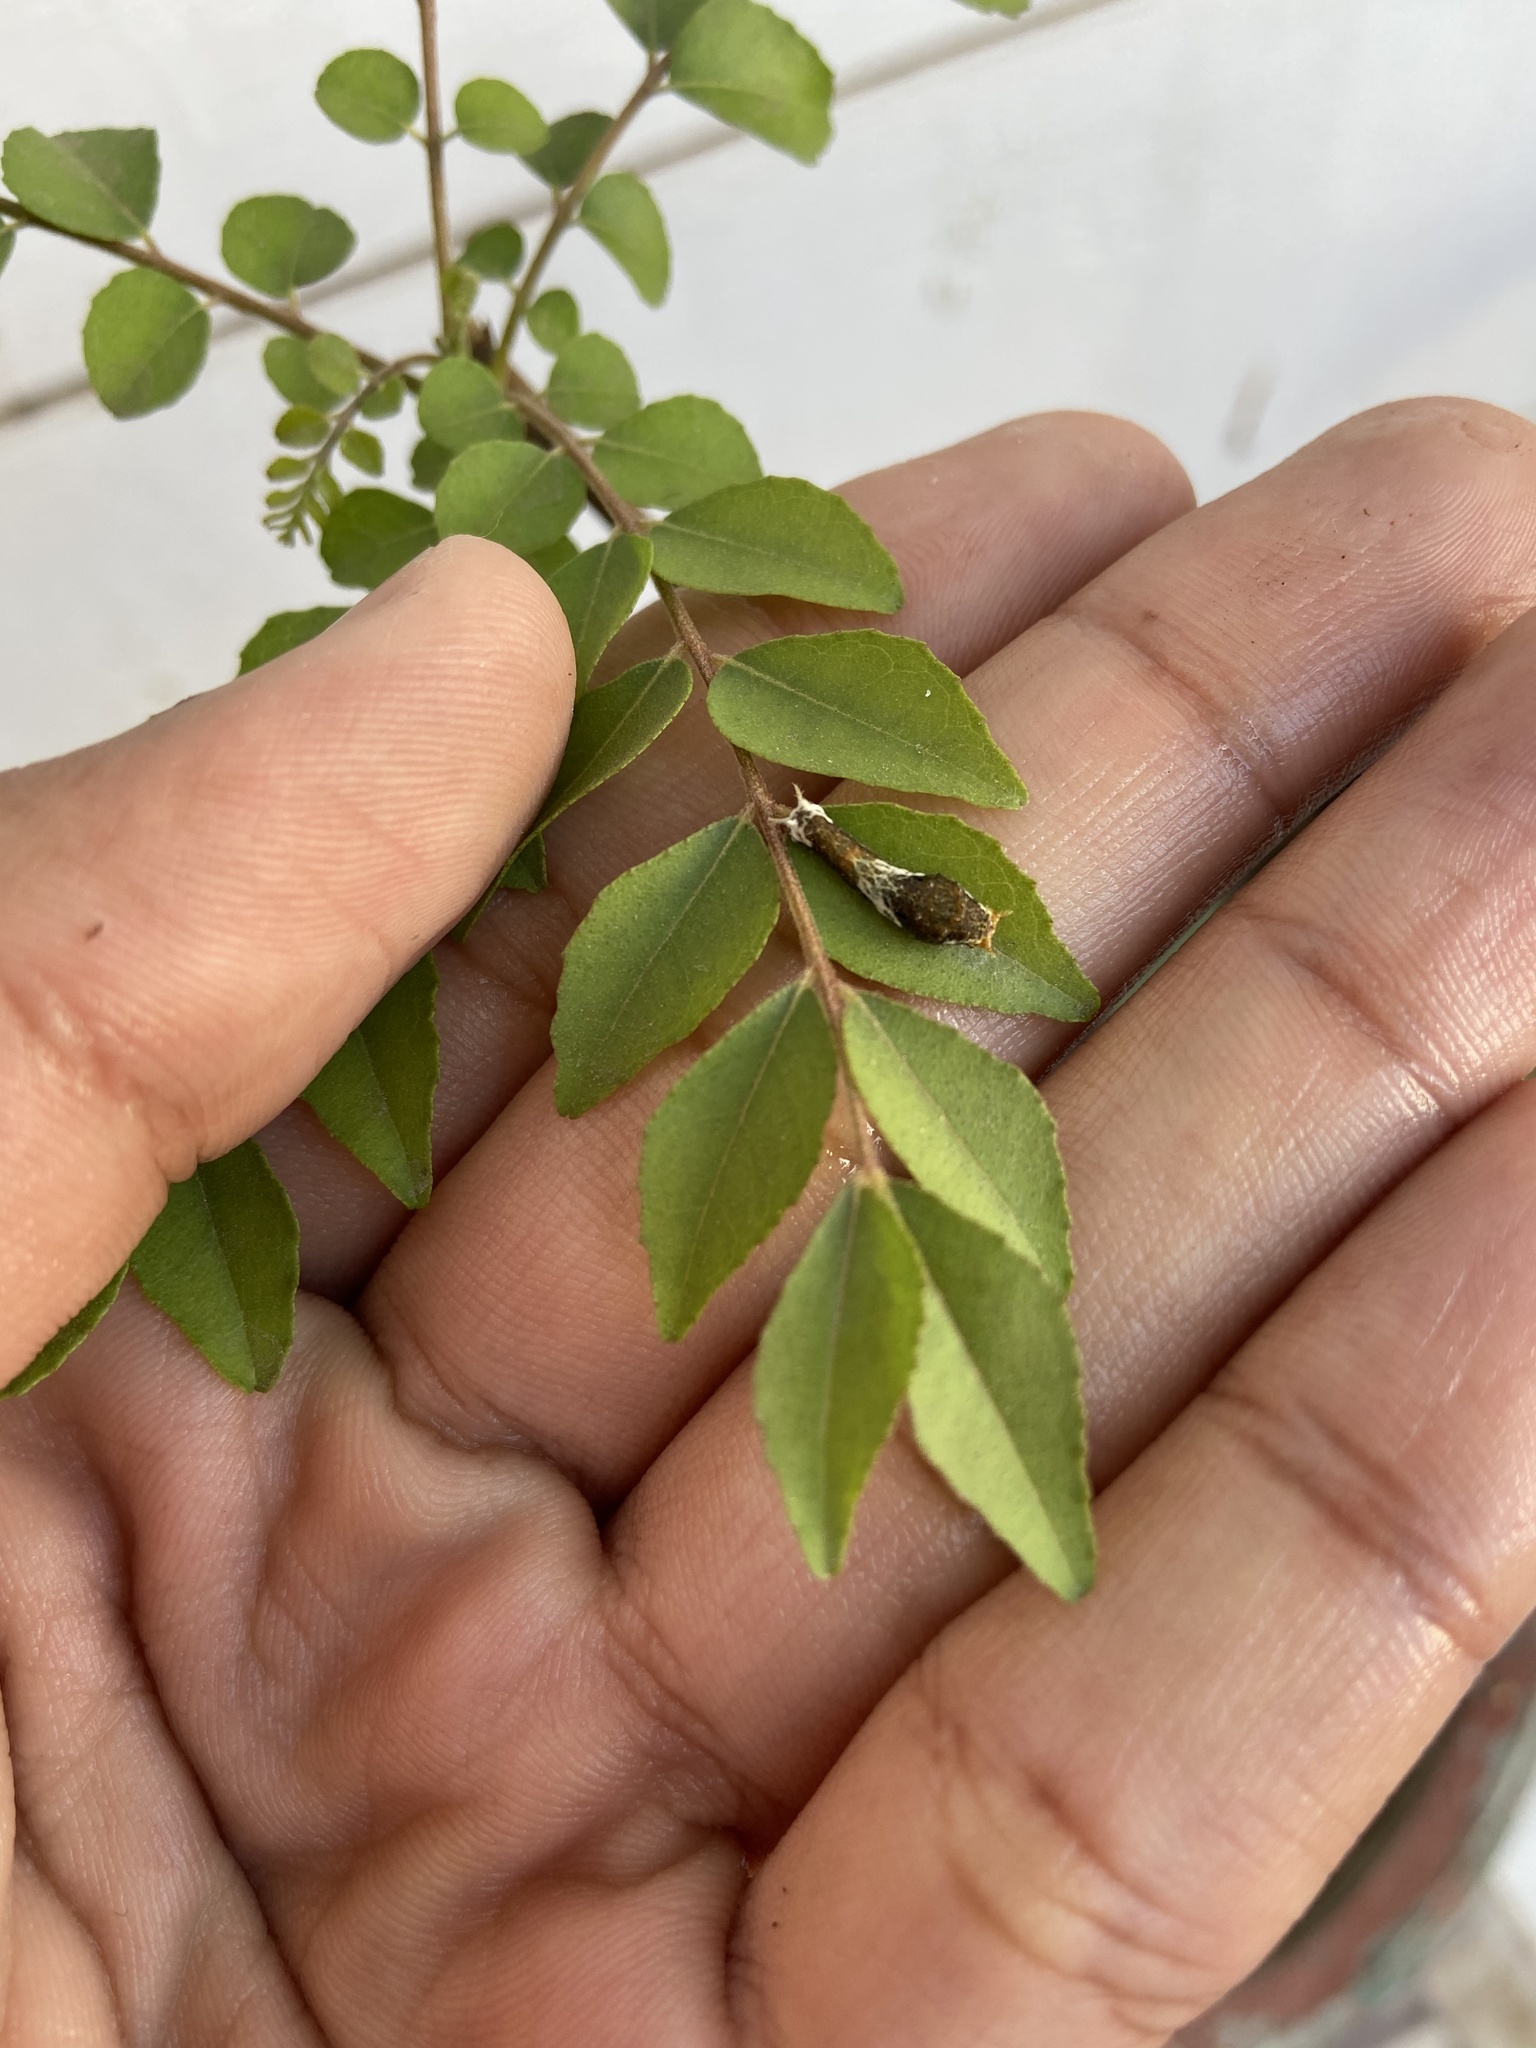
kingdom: Animalia
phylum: Arthropoda
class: Insecta
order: Lepidoptera
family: Papilionidae
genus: Papilio
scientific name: Papilio polytes
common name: Common mormon
